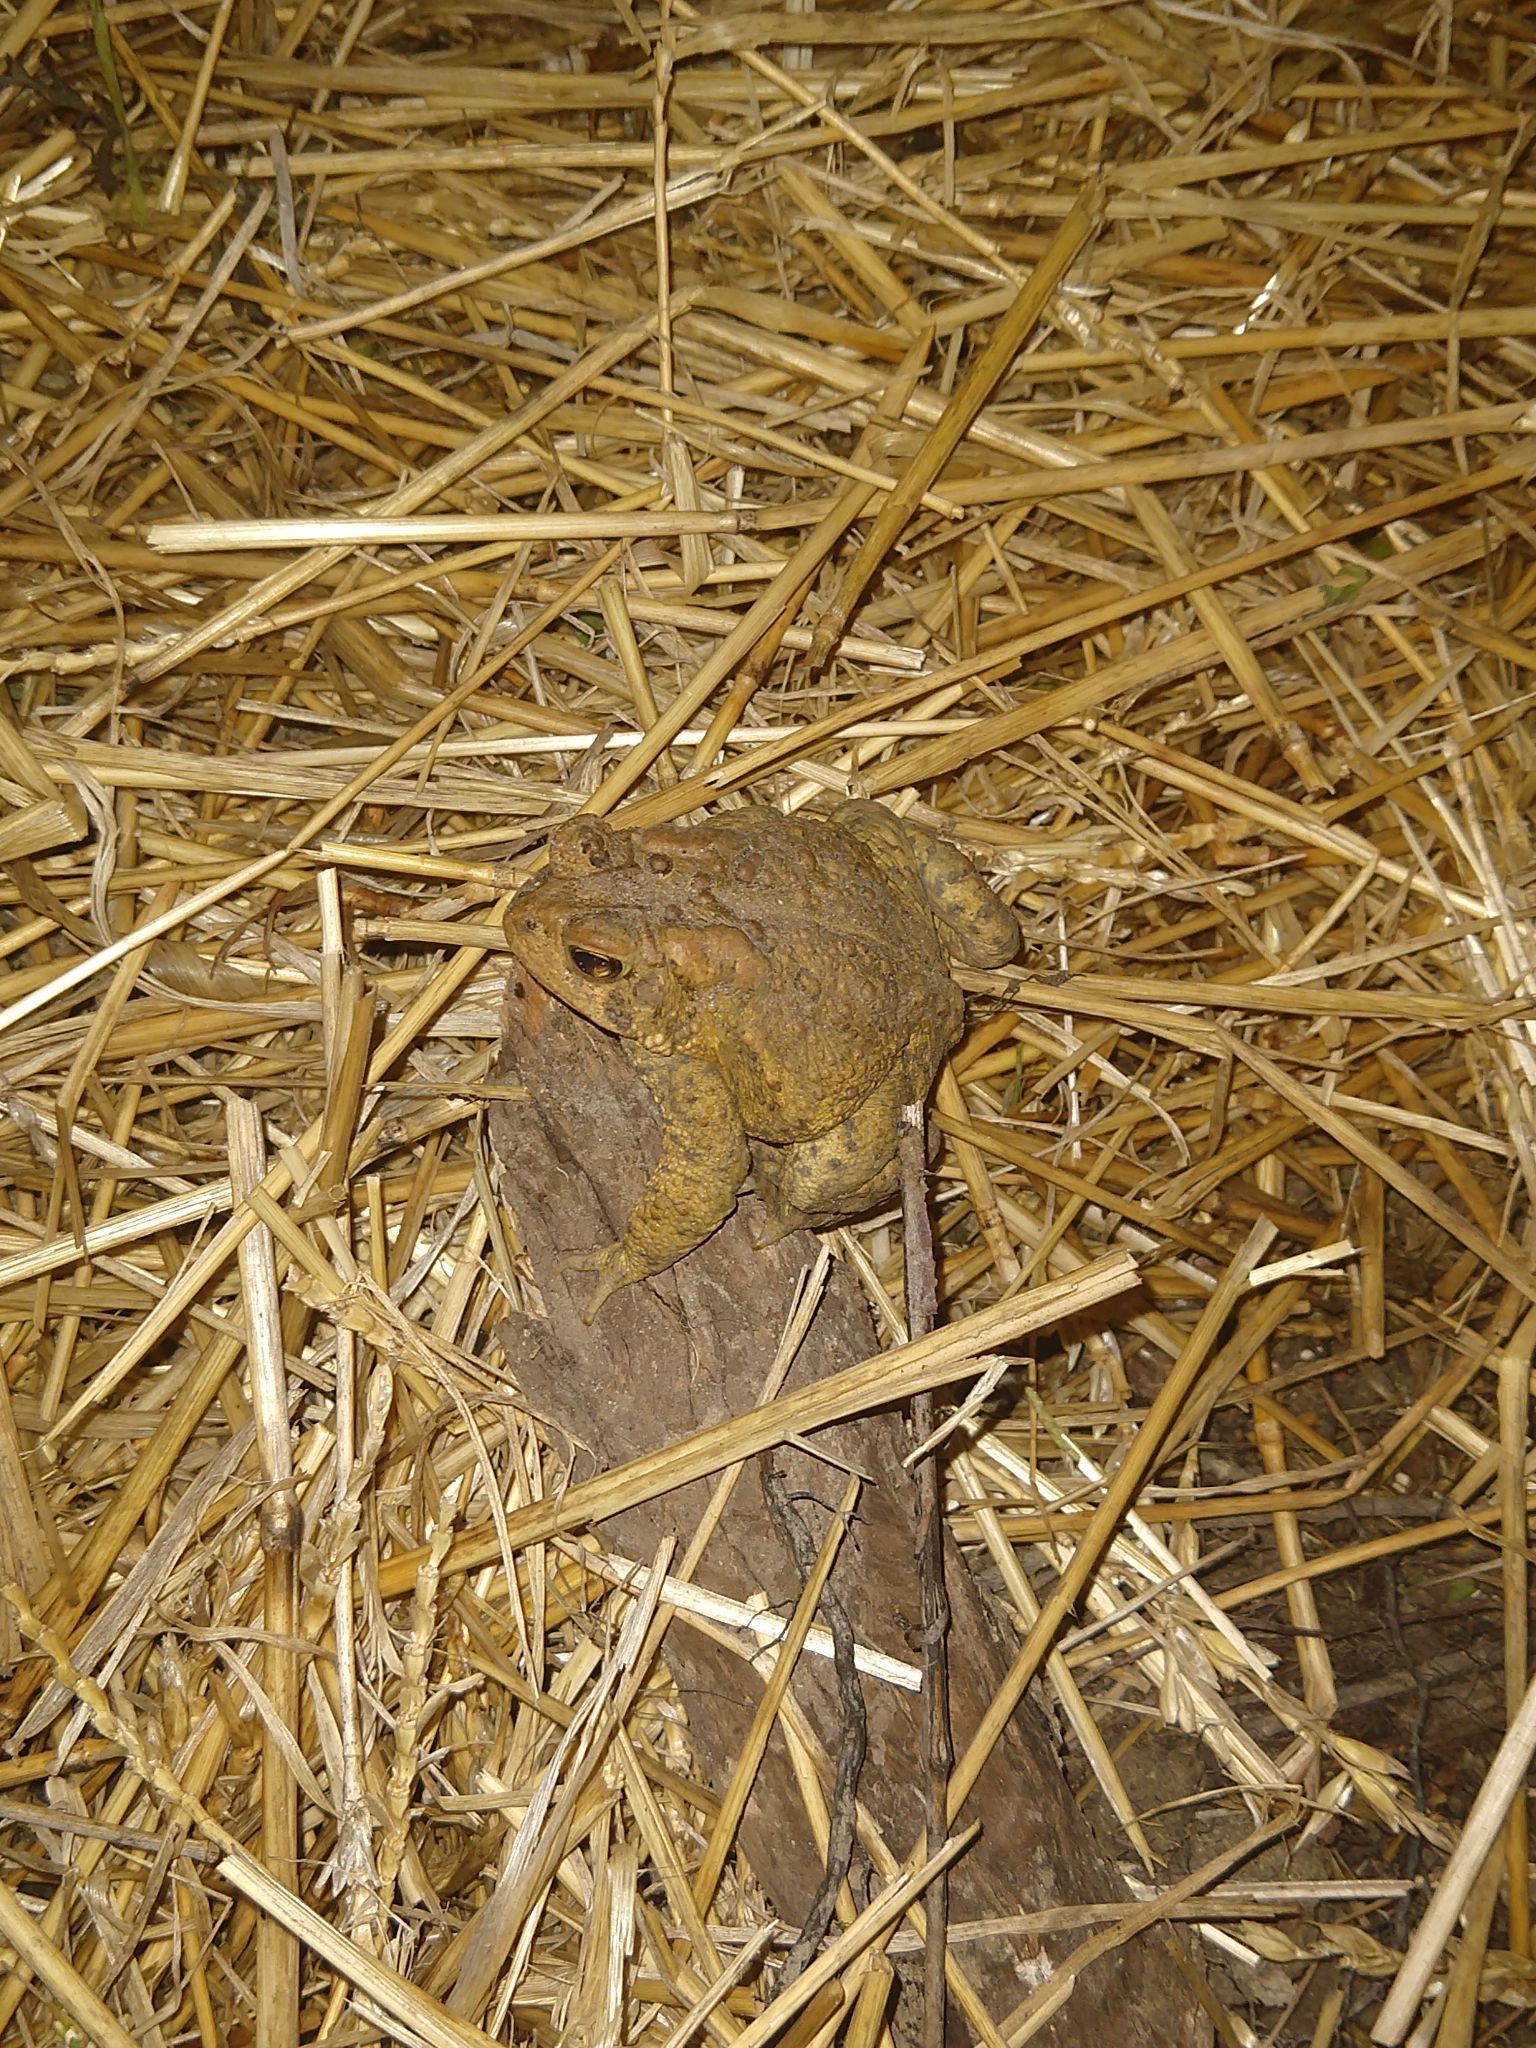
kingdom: Animalia
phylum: Chordata
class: Amphibia
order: Anura
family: Bufonidae
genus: Anaxyrus
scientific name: Anaxyrus americanus
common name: American toad
